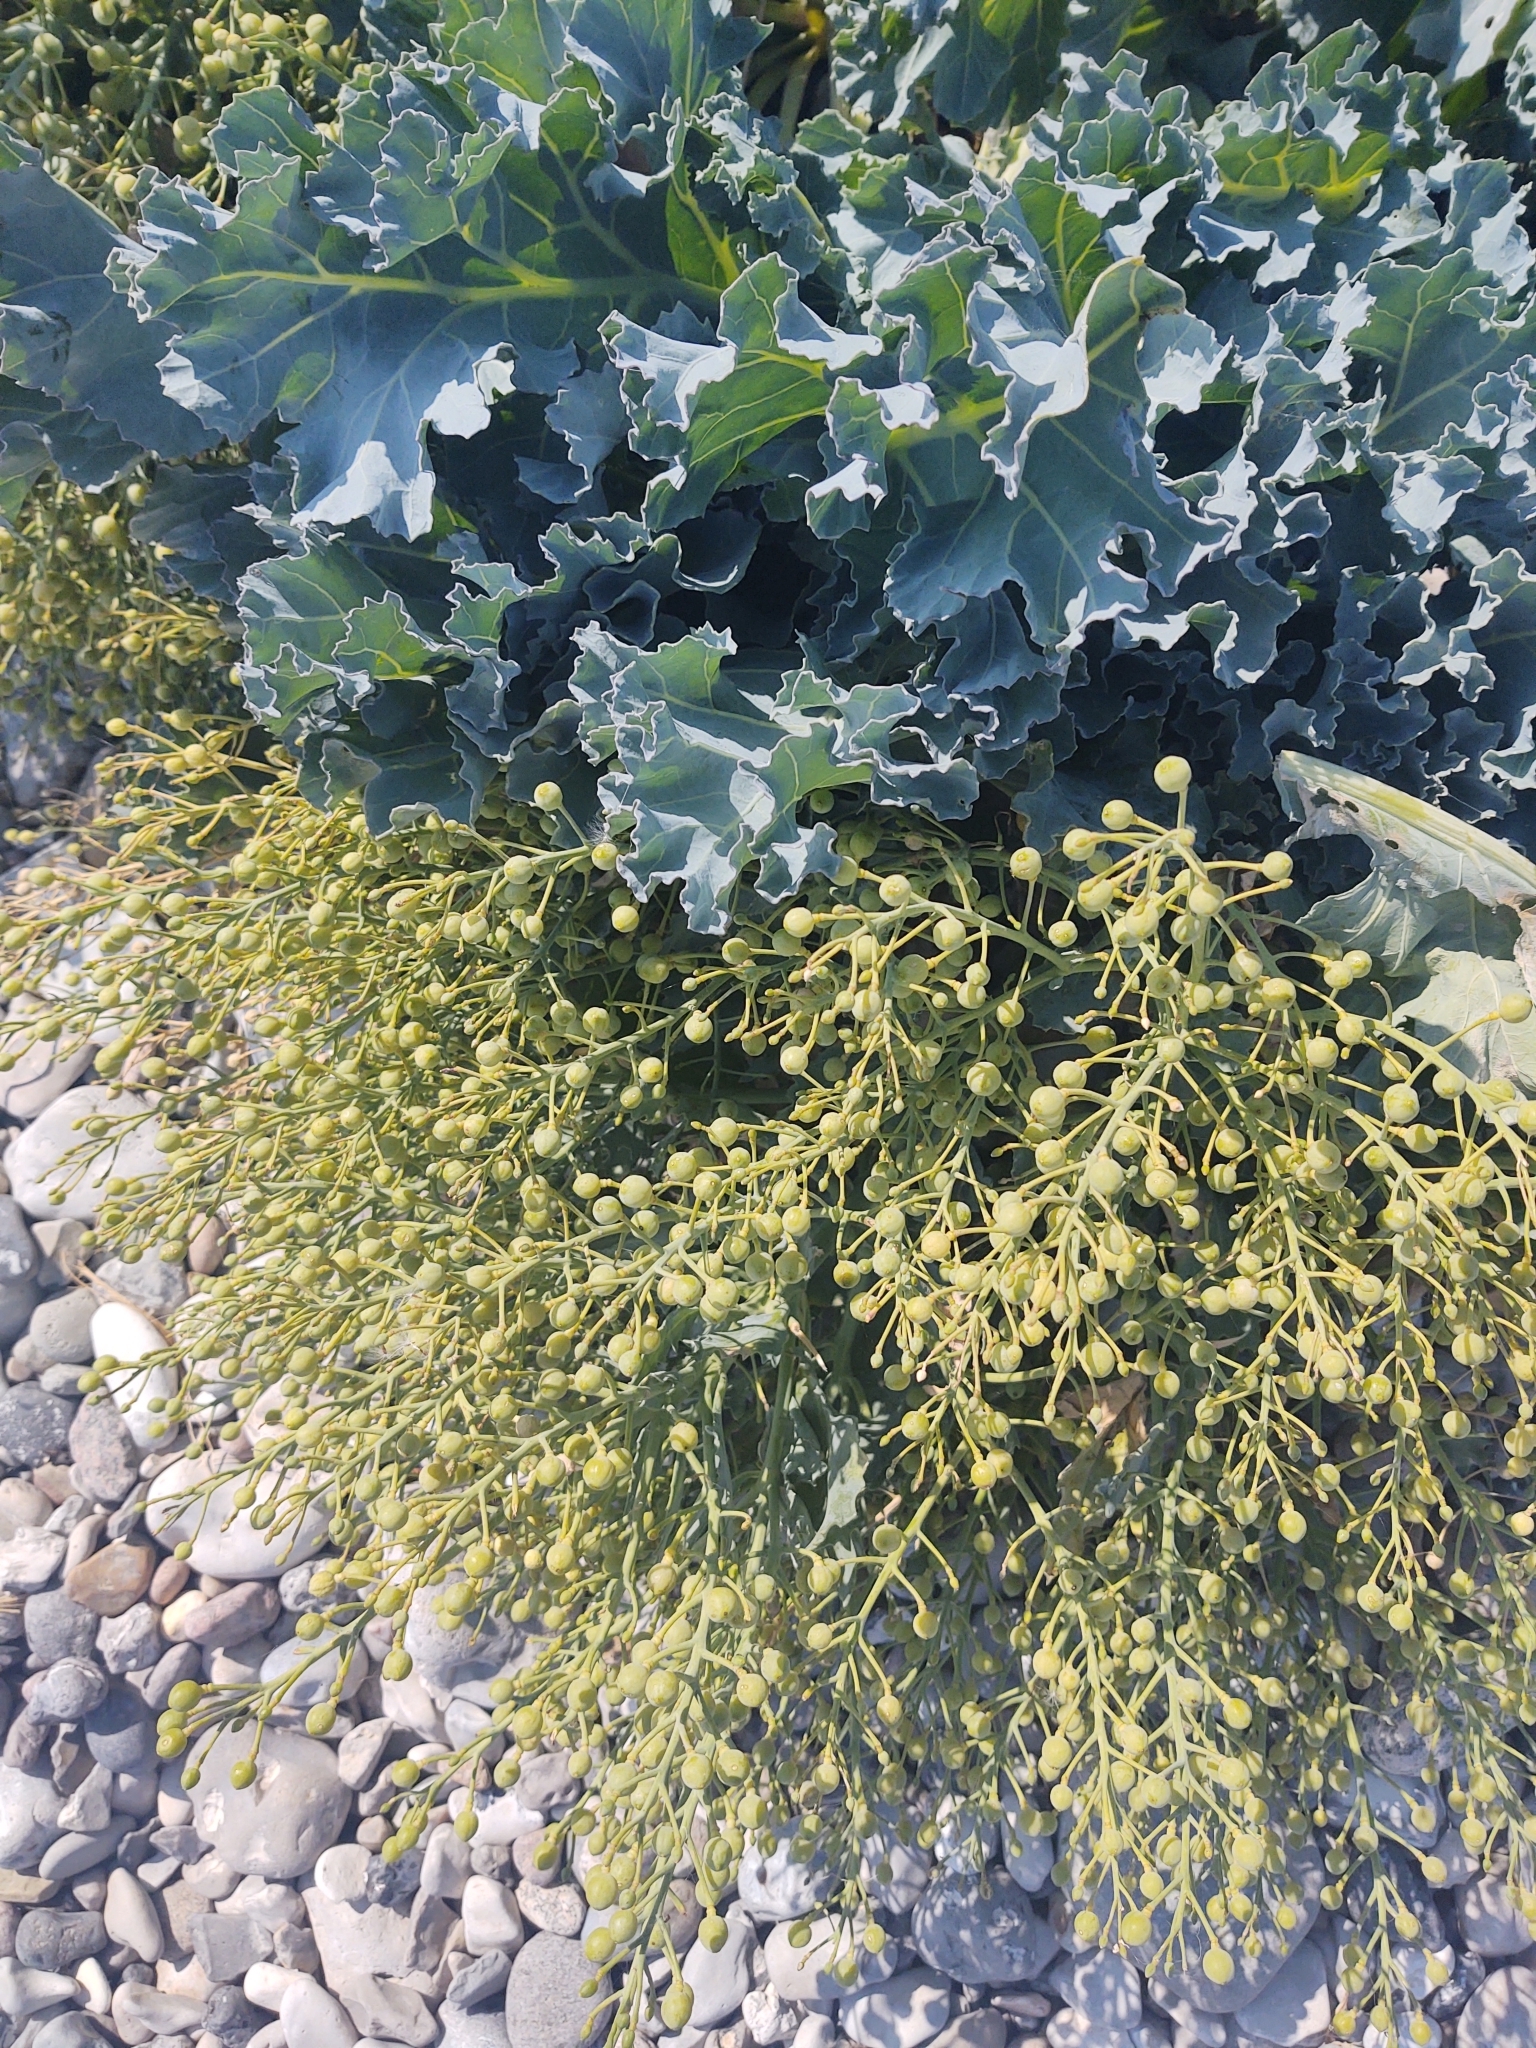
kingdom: Plantae
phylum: Tracheophyta
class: Magnoliopsida
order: Brassicales
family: Brassicaceae
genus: Crambe
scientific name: Crambe maritima
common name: Sea-kale
